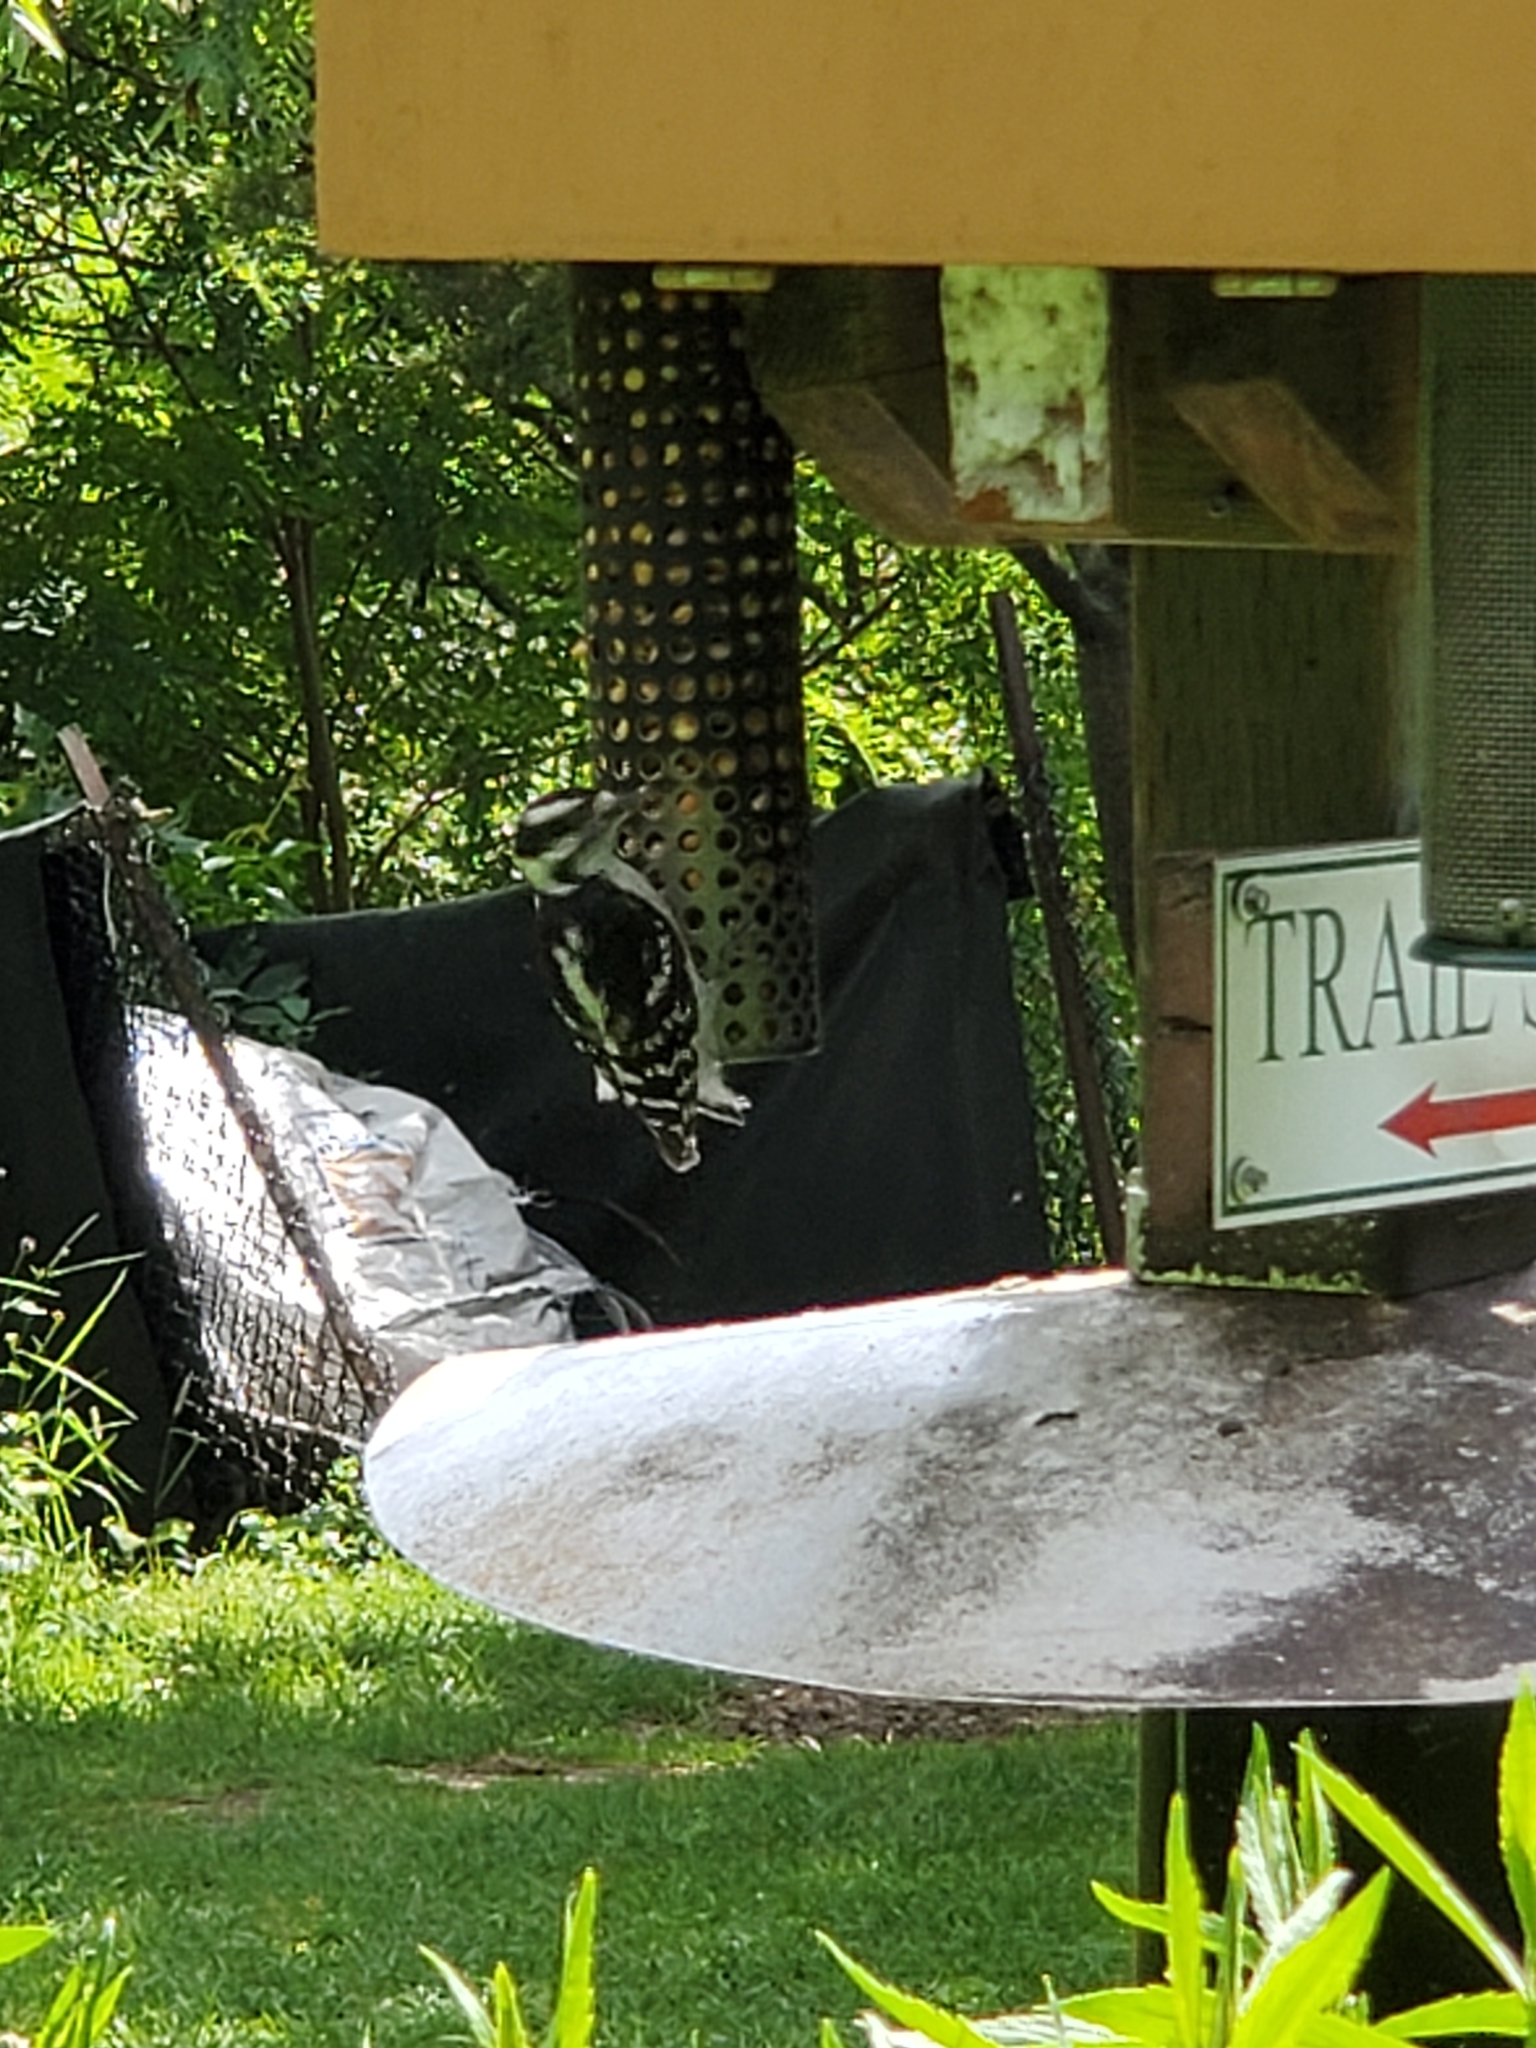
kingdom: Animalia
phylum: Chordata
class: Aves
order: Piciformes
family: Picidae
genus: Dryobates
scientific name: Dryobates pubescens
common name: Downy woodpecker
